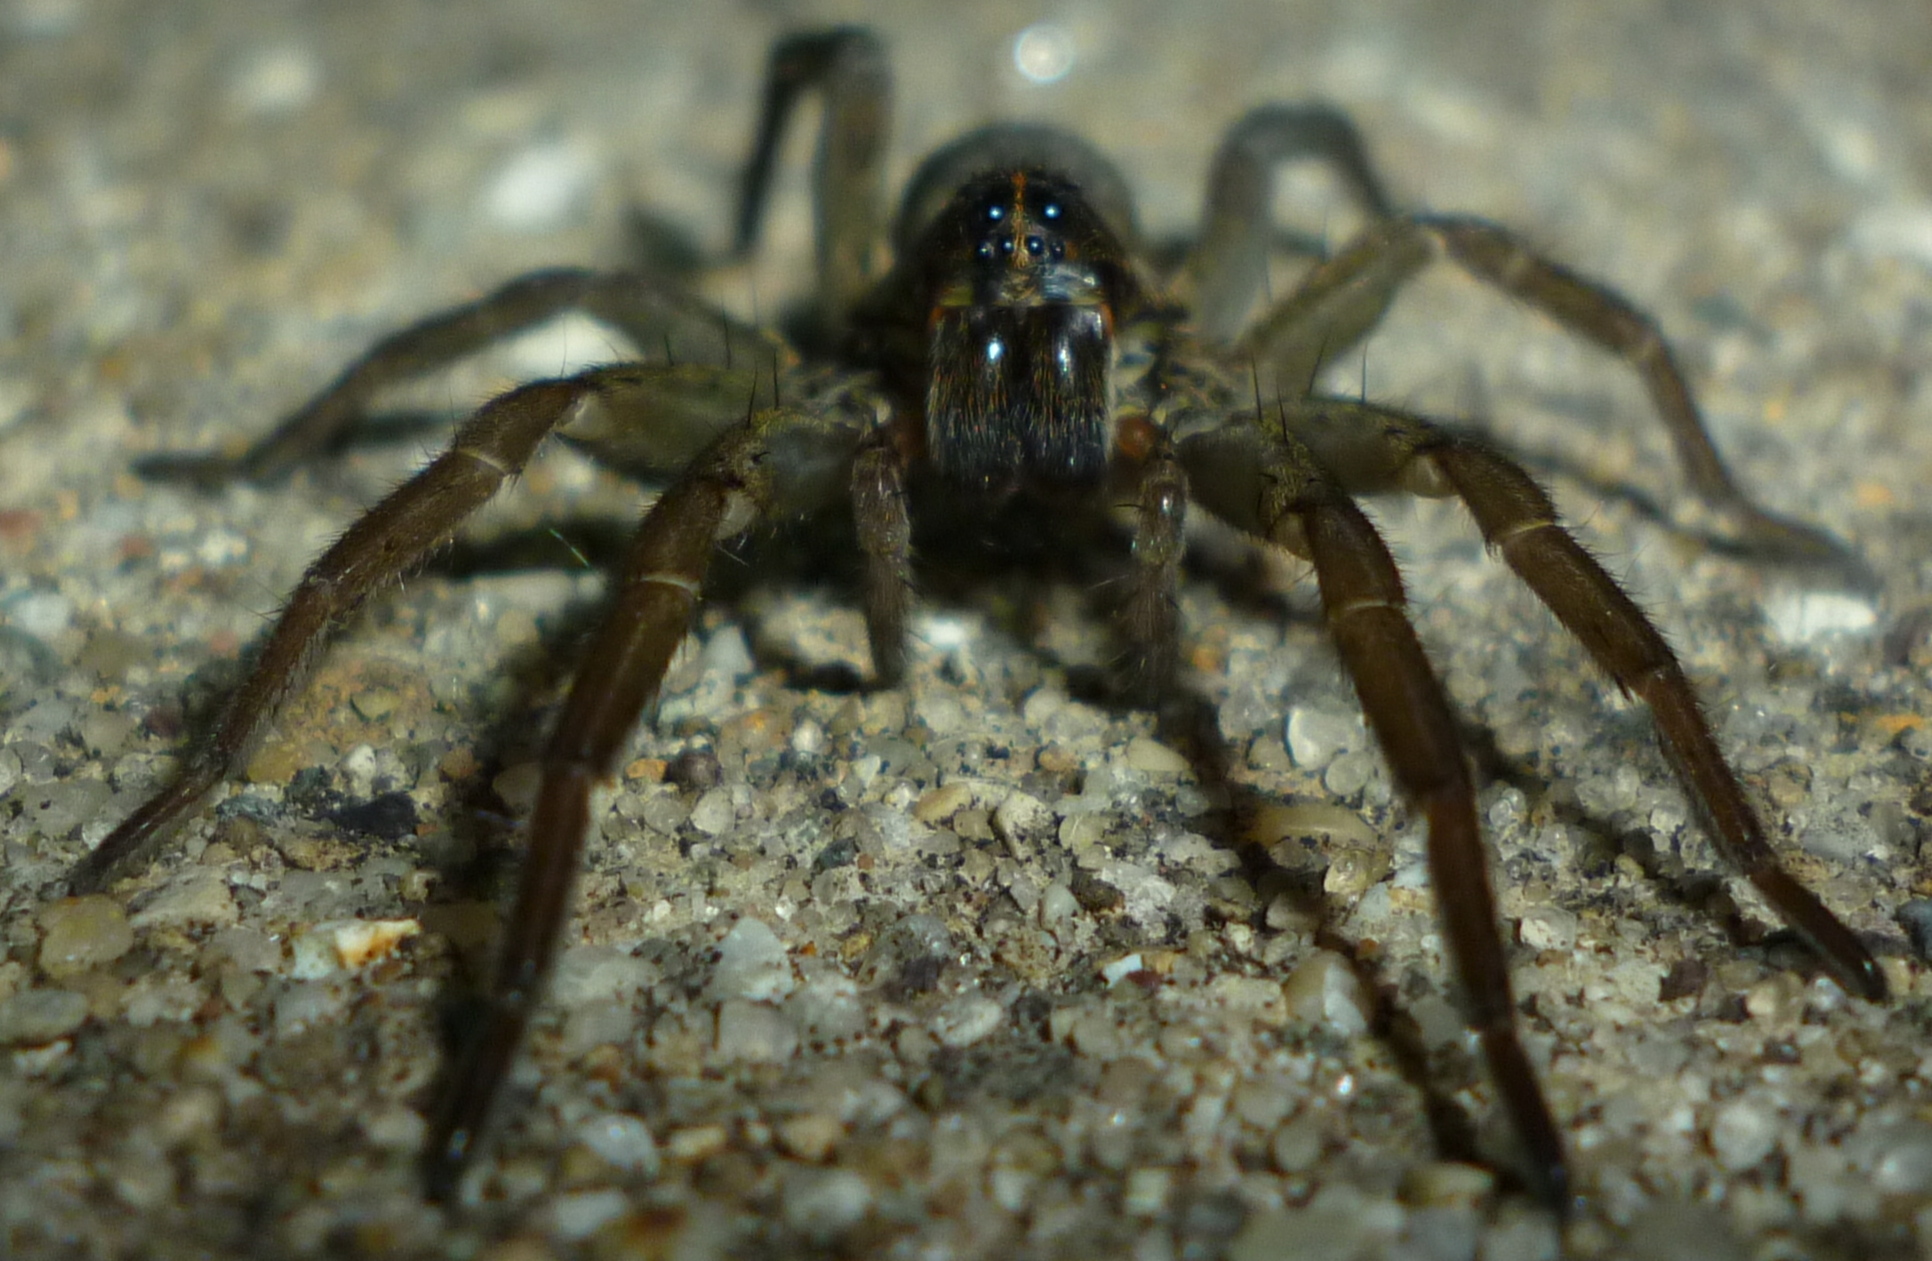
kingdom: Animalia
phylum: Arthropoda
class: Arachnida
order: Araneae
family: Lycosidae
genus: Tigrosa
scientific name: Tigrosa helluo
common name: Wetland giant wolf spider
